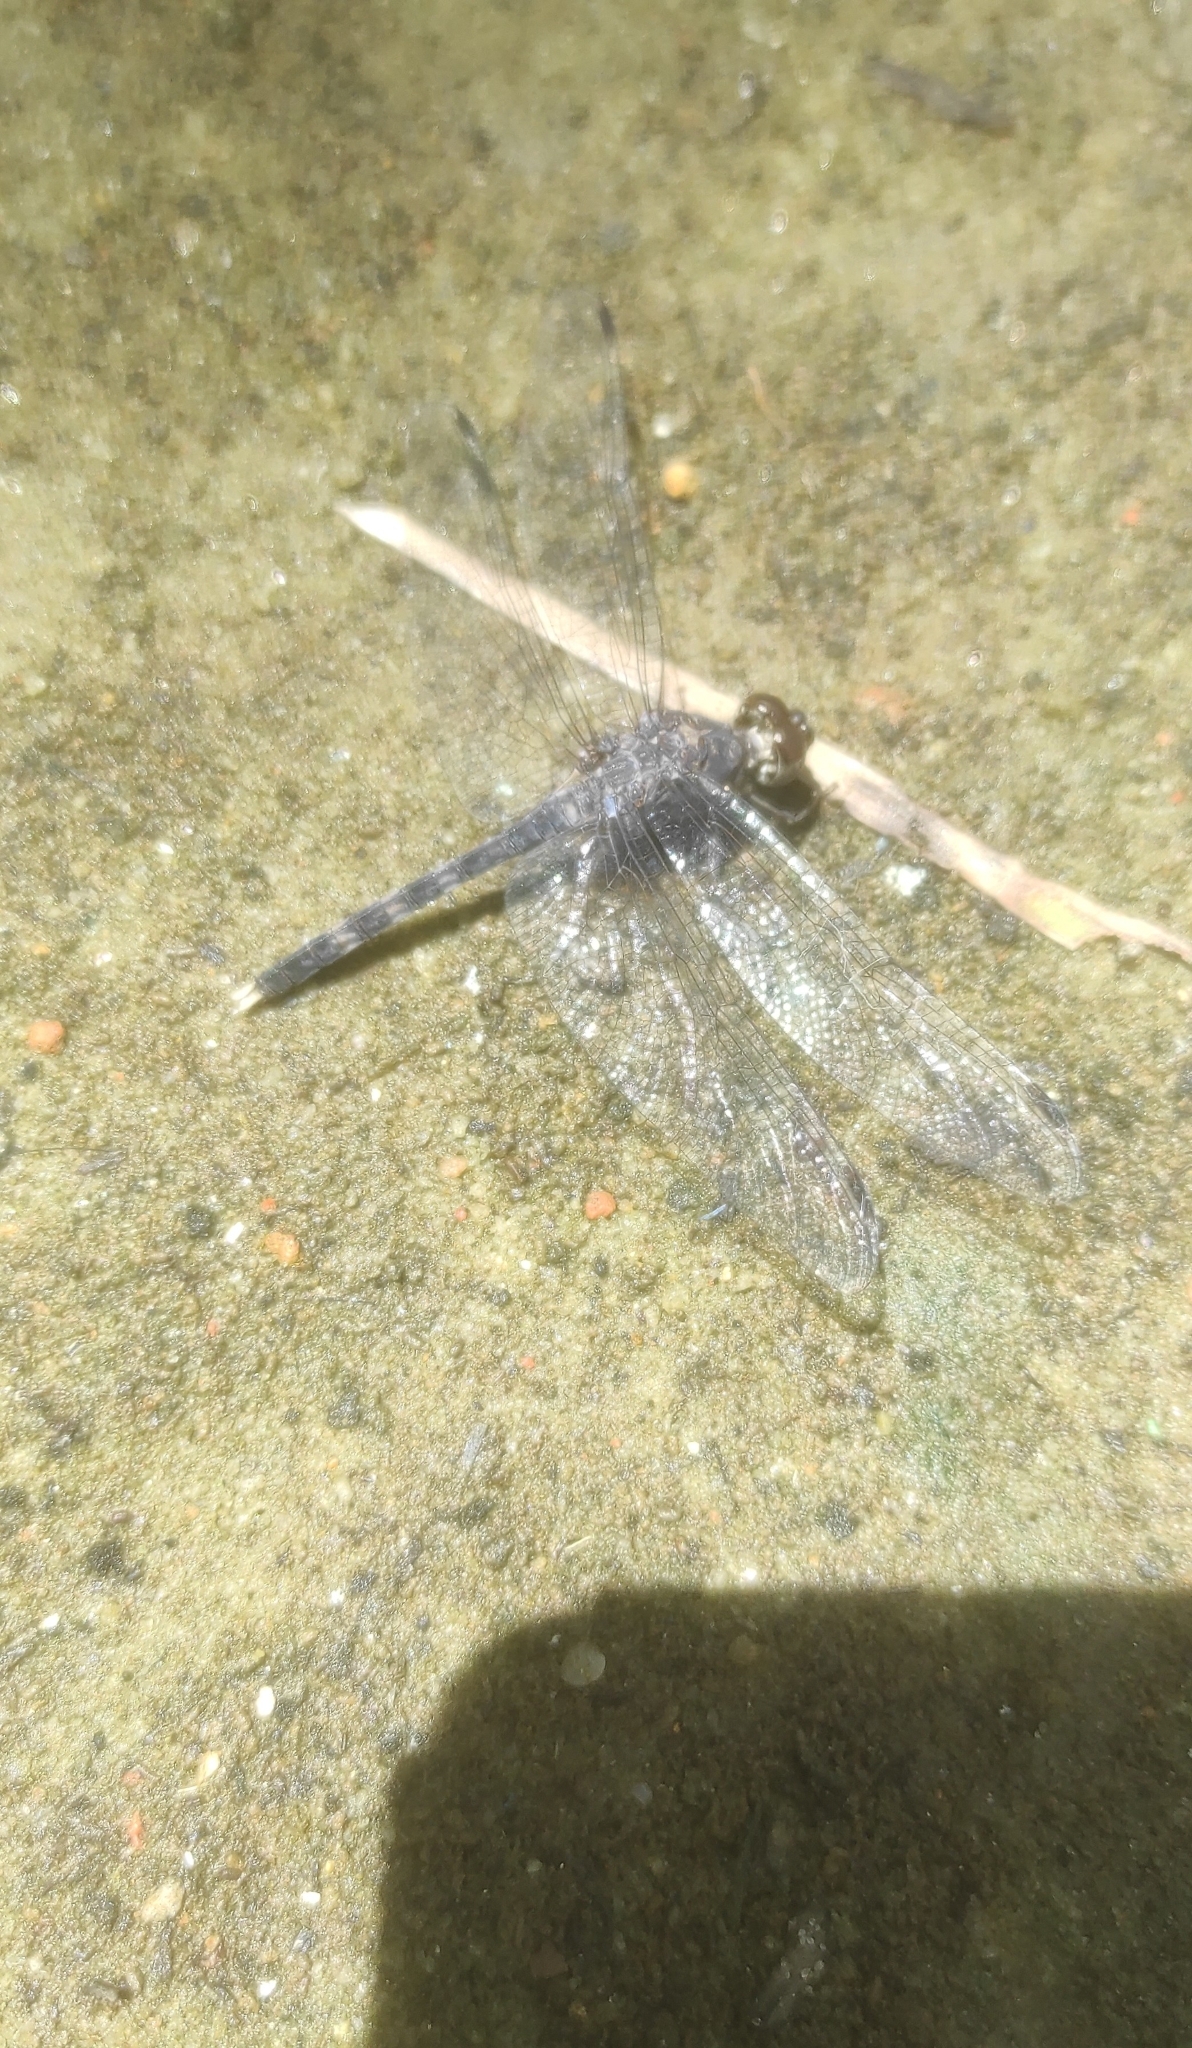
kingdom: Animalia
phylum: Arthropoda
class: Insecta
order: Odonata
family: Libellulidae
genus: Bradinopyga
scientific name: Bradinopyga geminata
